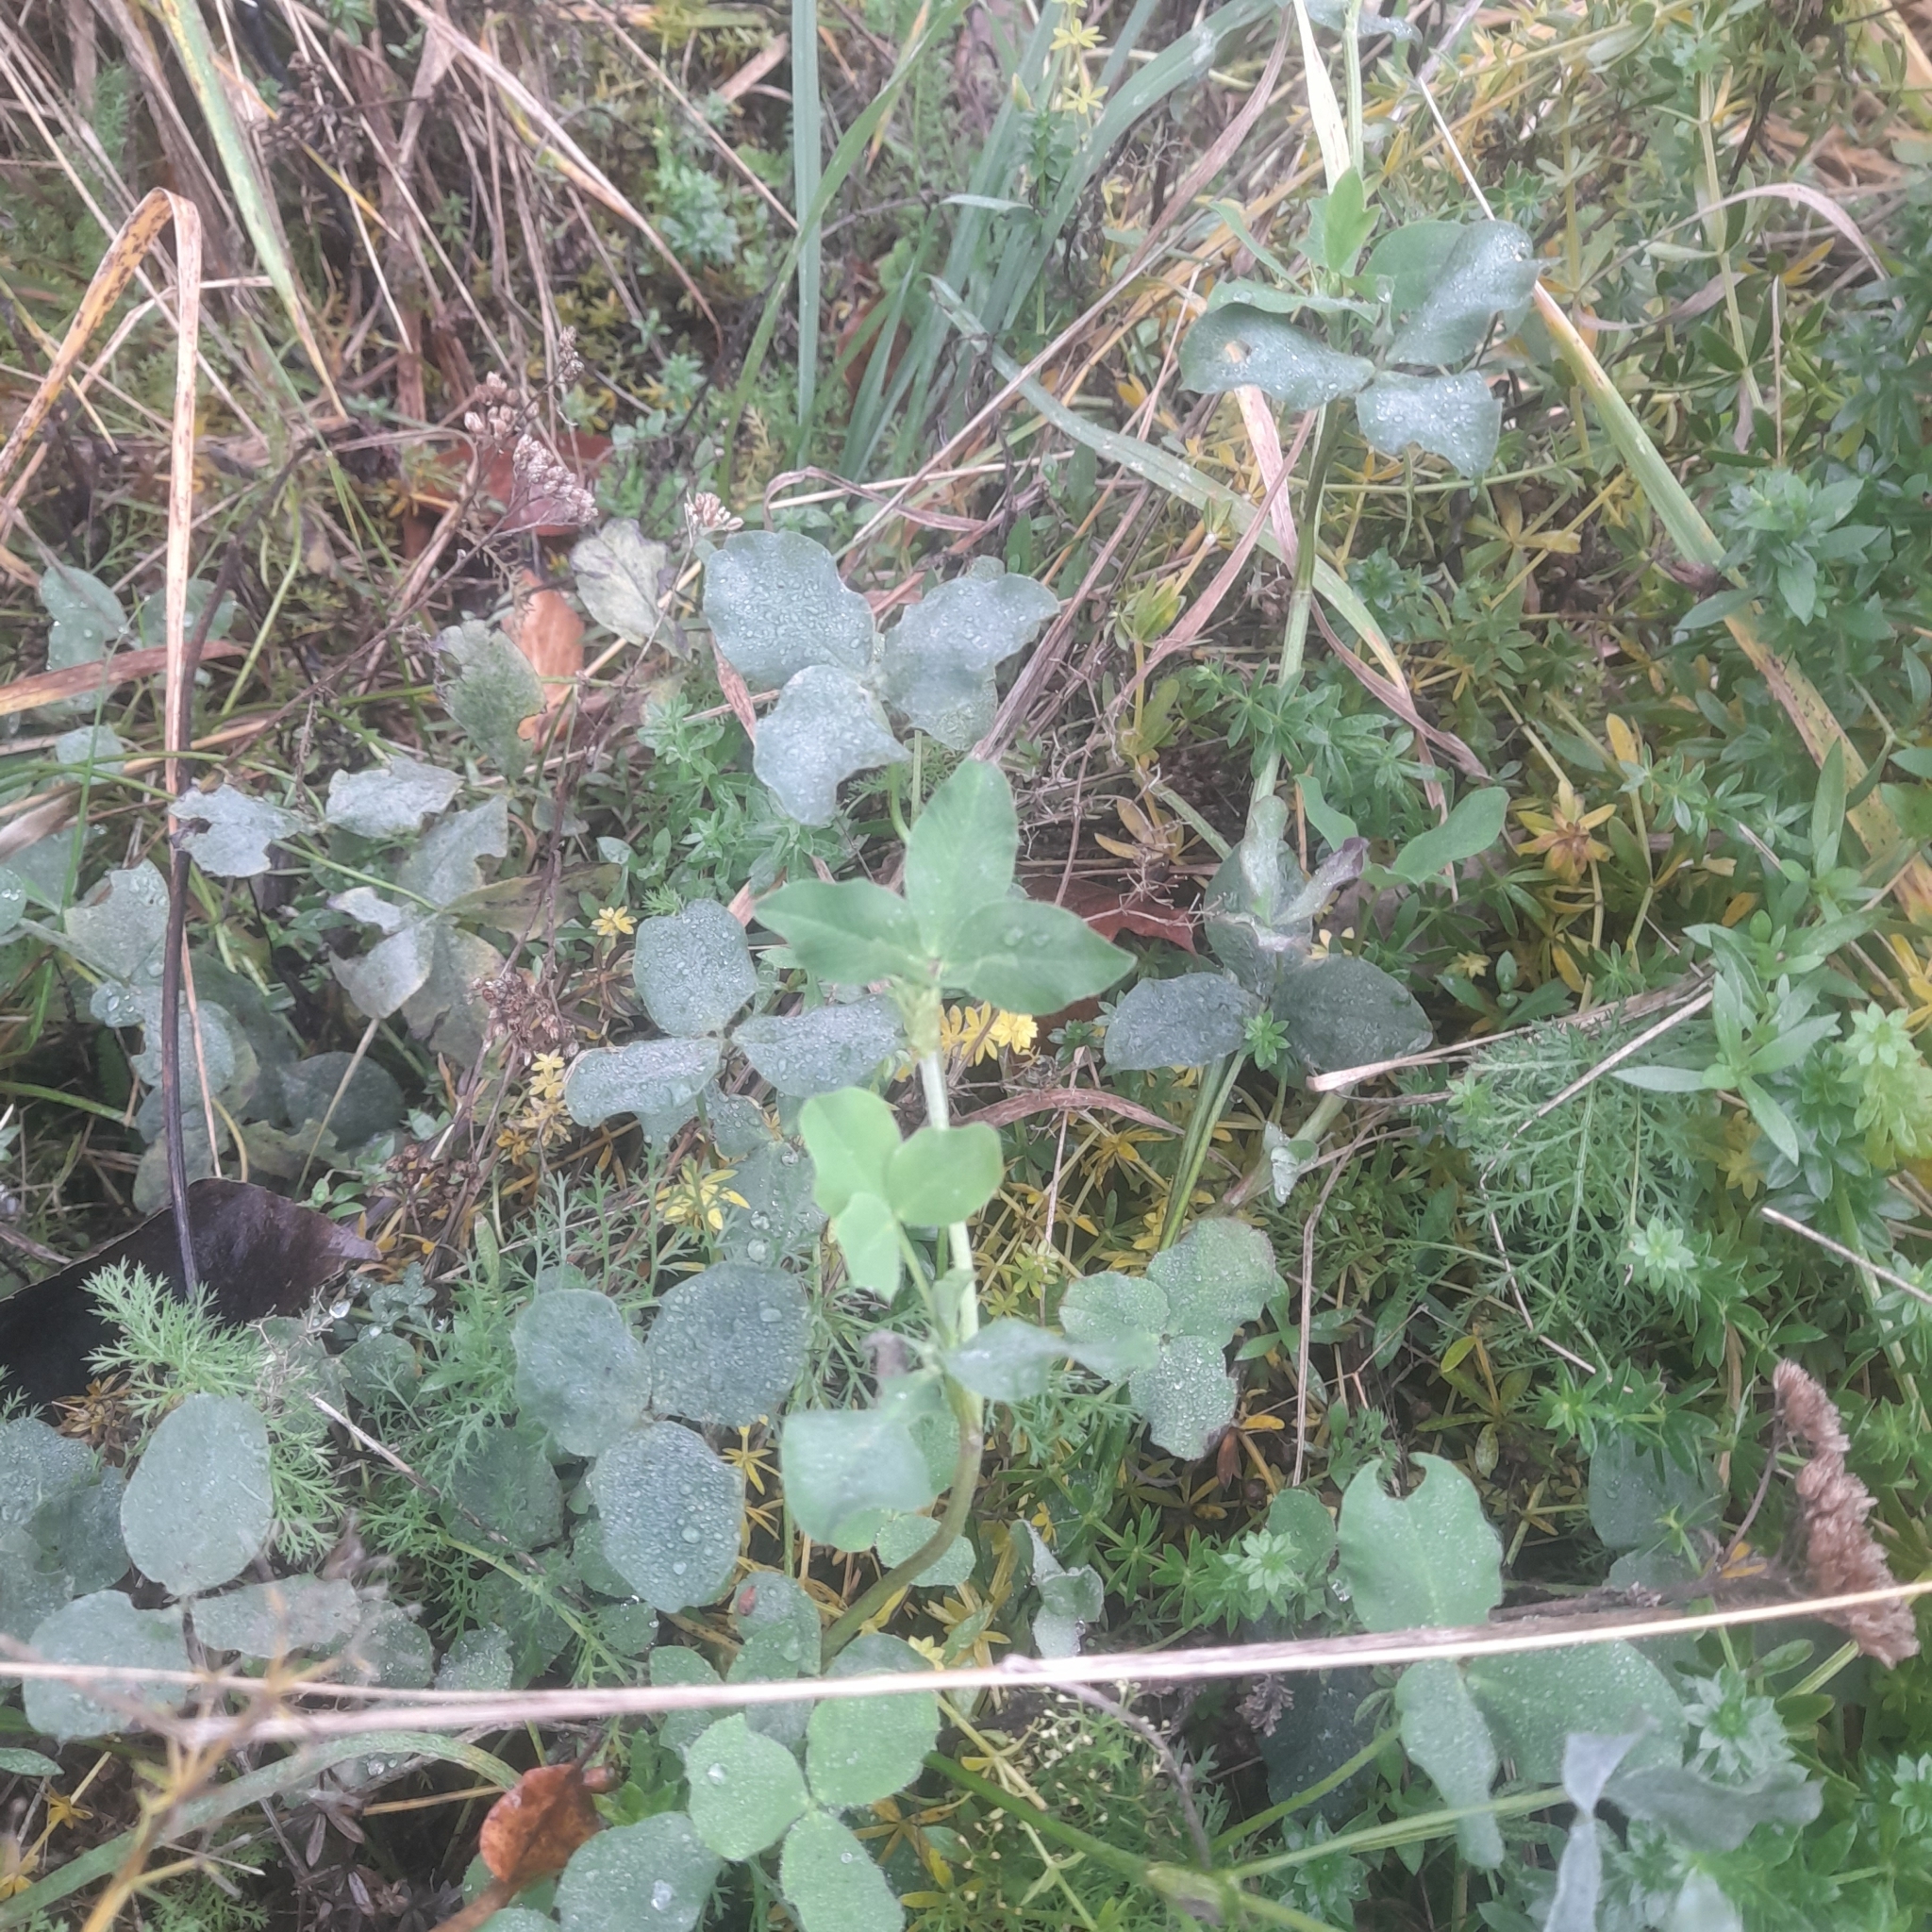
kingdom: Plantae
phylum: Tracheophyta
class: Magnoliopsida
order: Fabales
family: Fabaceae
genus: Trifolium
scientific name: Trifolium pratense
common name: Red clover
